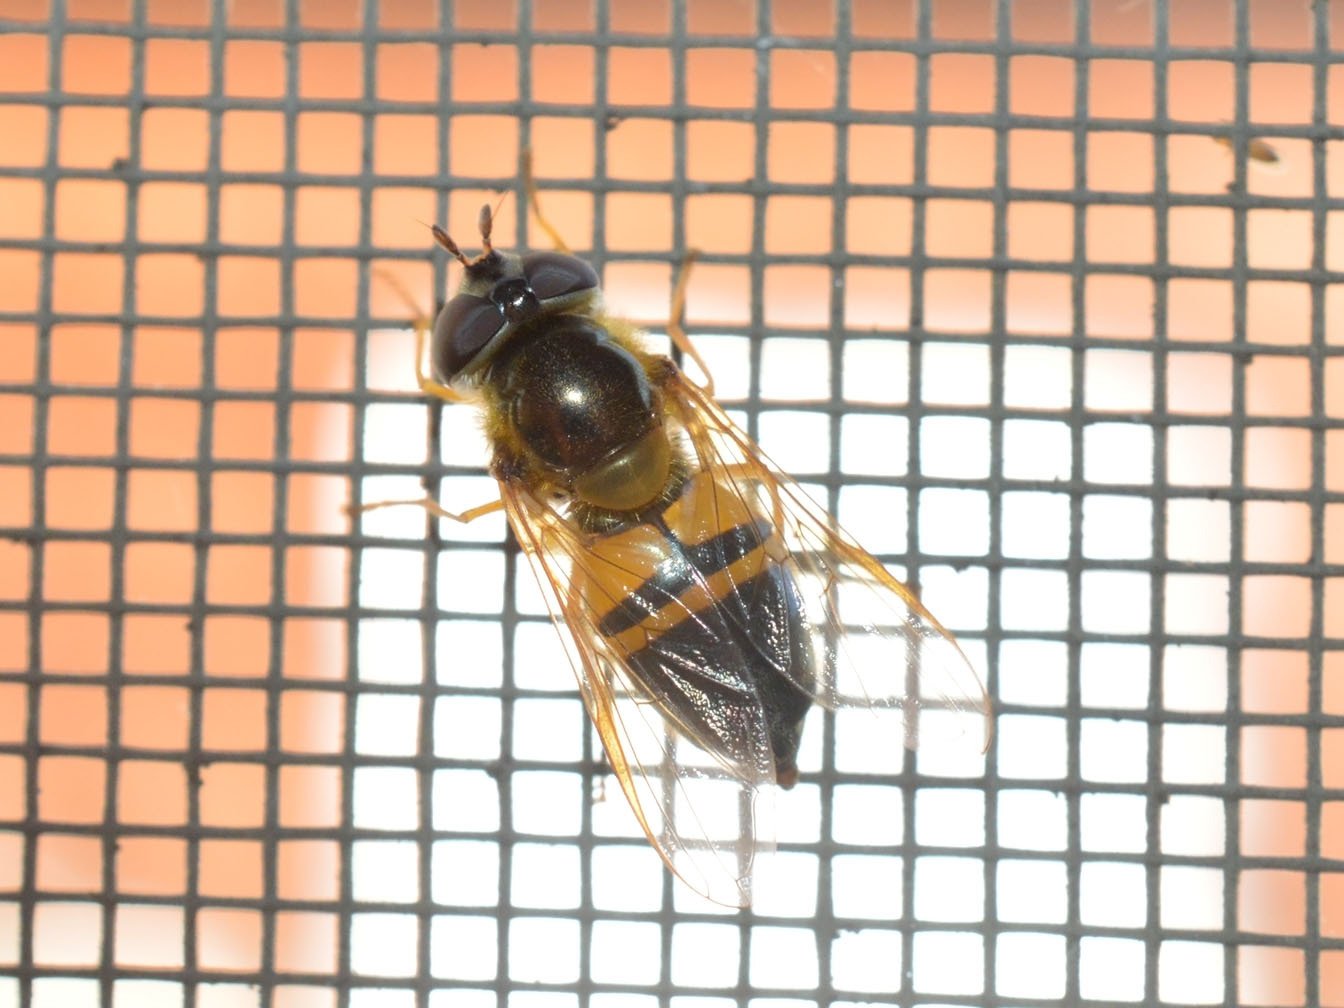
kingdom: Animalia
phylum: Arthropoda
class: Insecta
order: Diptera
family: Syrphidae
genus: Epistrophe
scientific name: Epistrophe eligans
